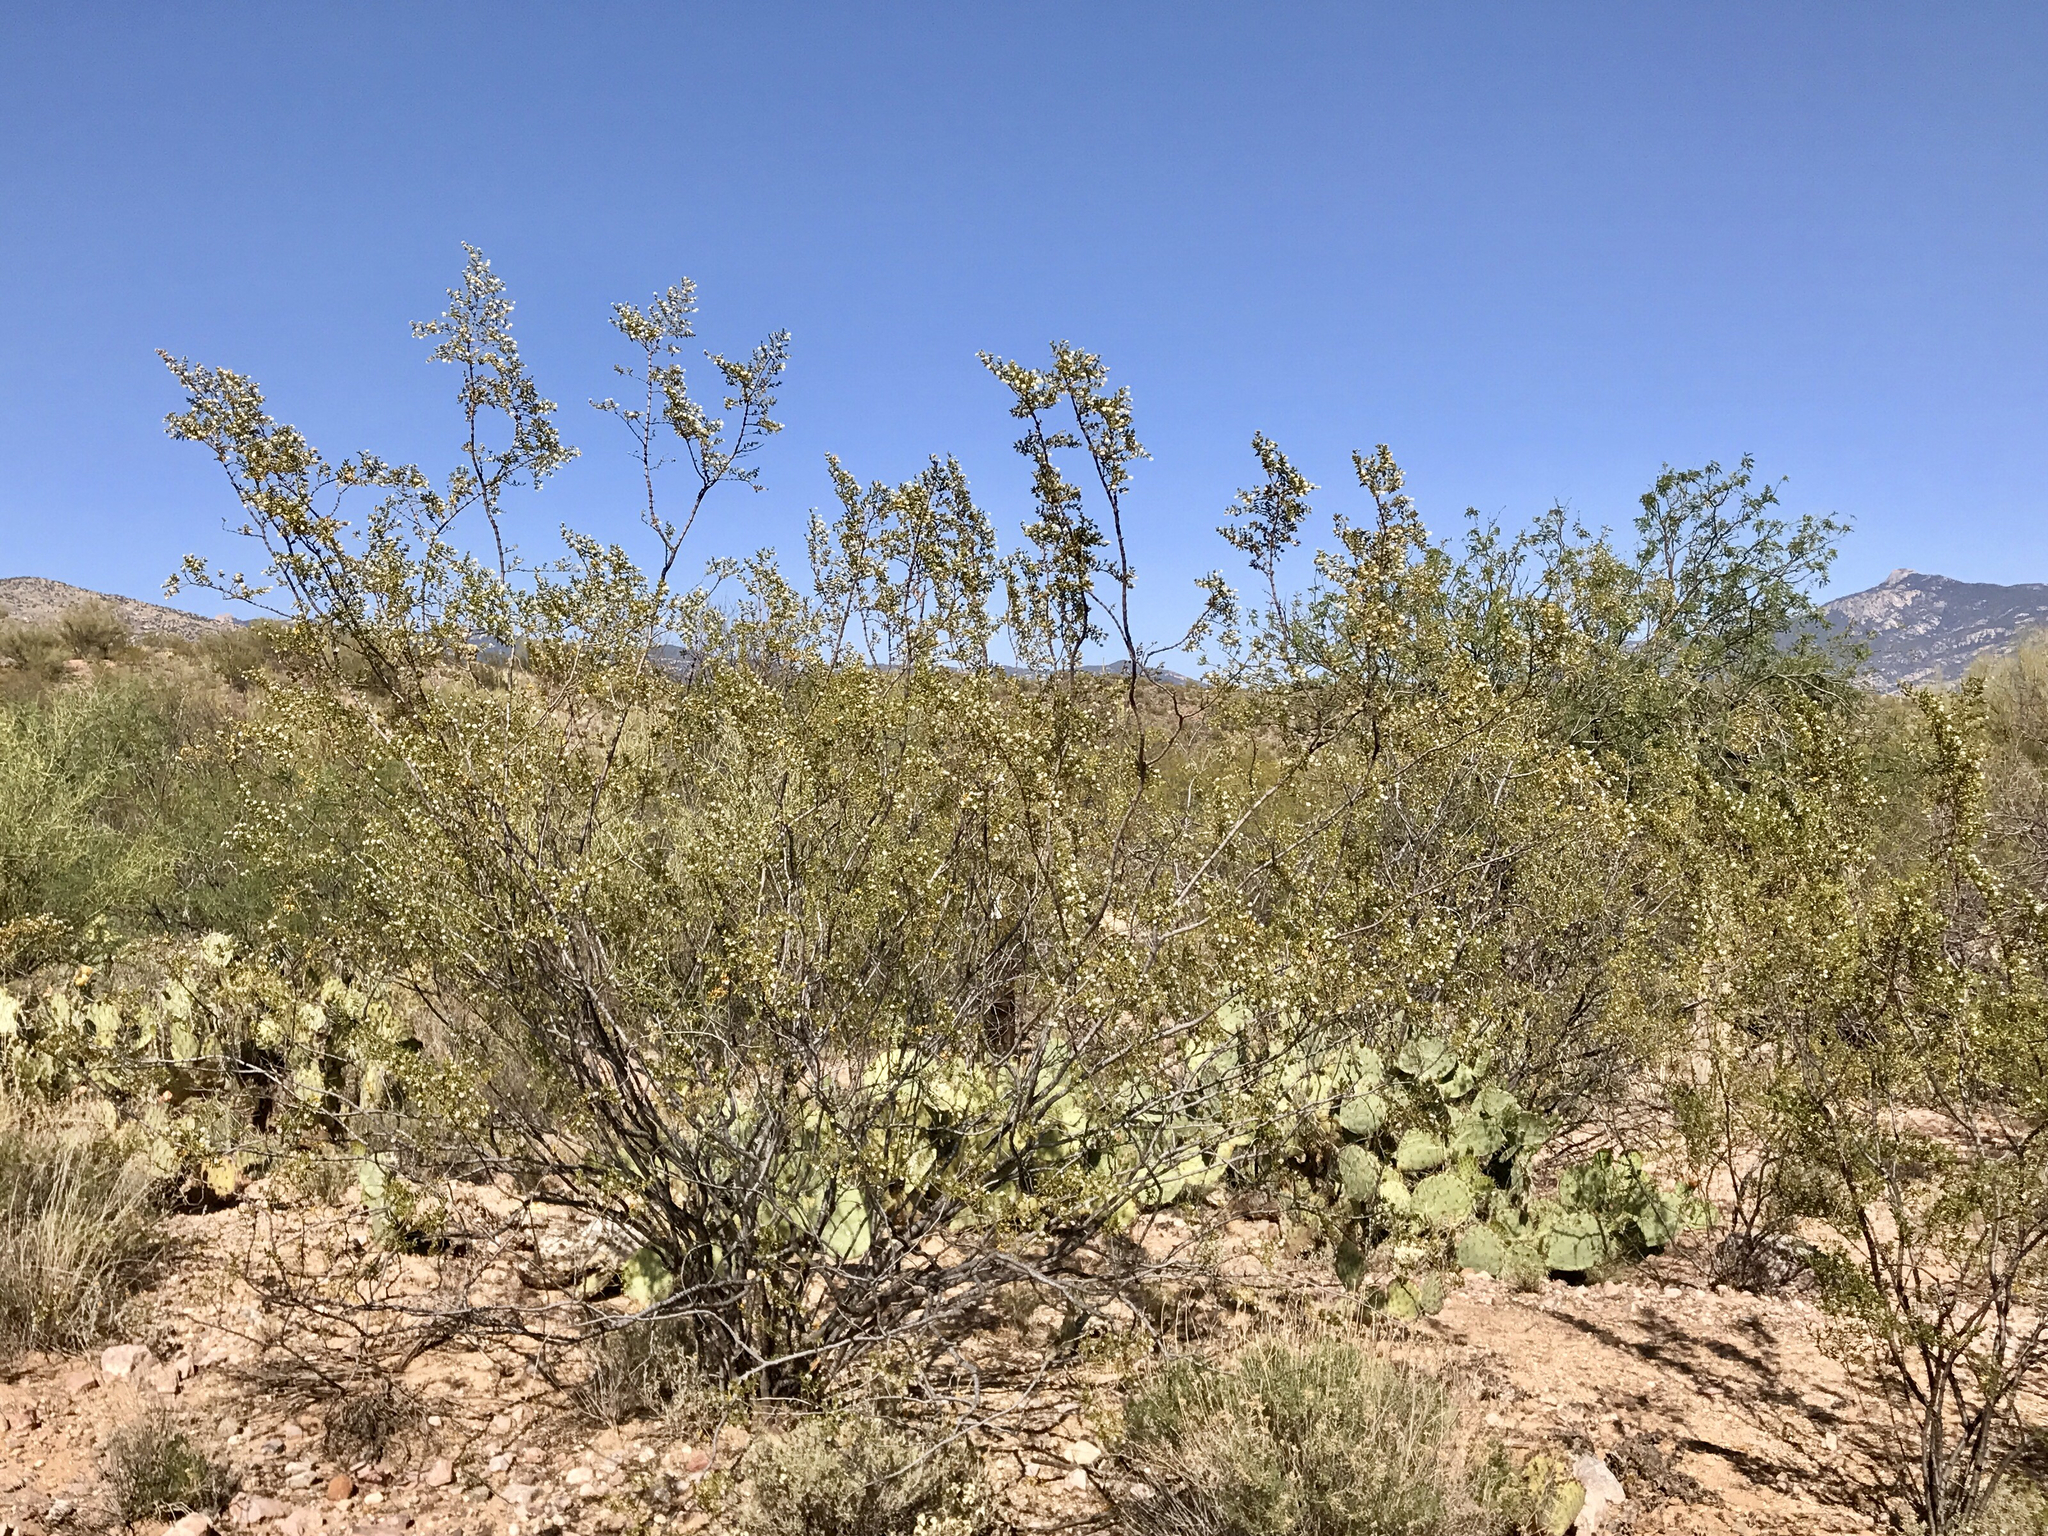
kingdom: Plantae
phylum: Tracheophyta
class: Magnoliopsida
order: Zygophyllales
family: Zygophyllaceae
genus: Larrea
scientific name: Larrea tridentata
